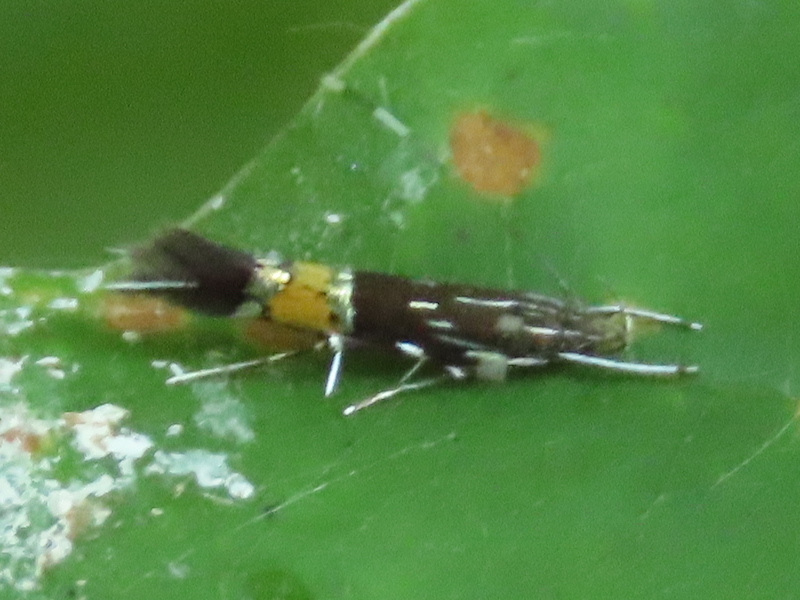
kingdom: Animalia
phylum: Arthropoda
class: Insecta
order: Lepidoptera
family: Cosmopterigidae
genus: Cosmopterix
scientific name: Cosmopterix pulchrimella
